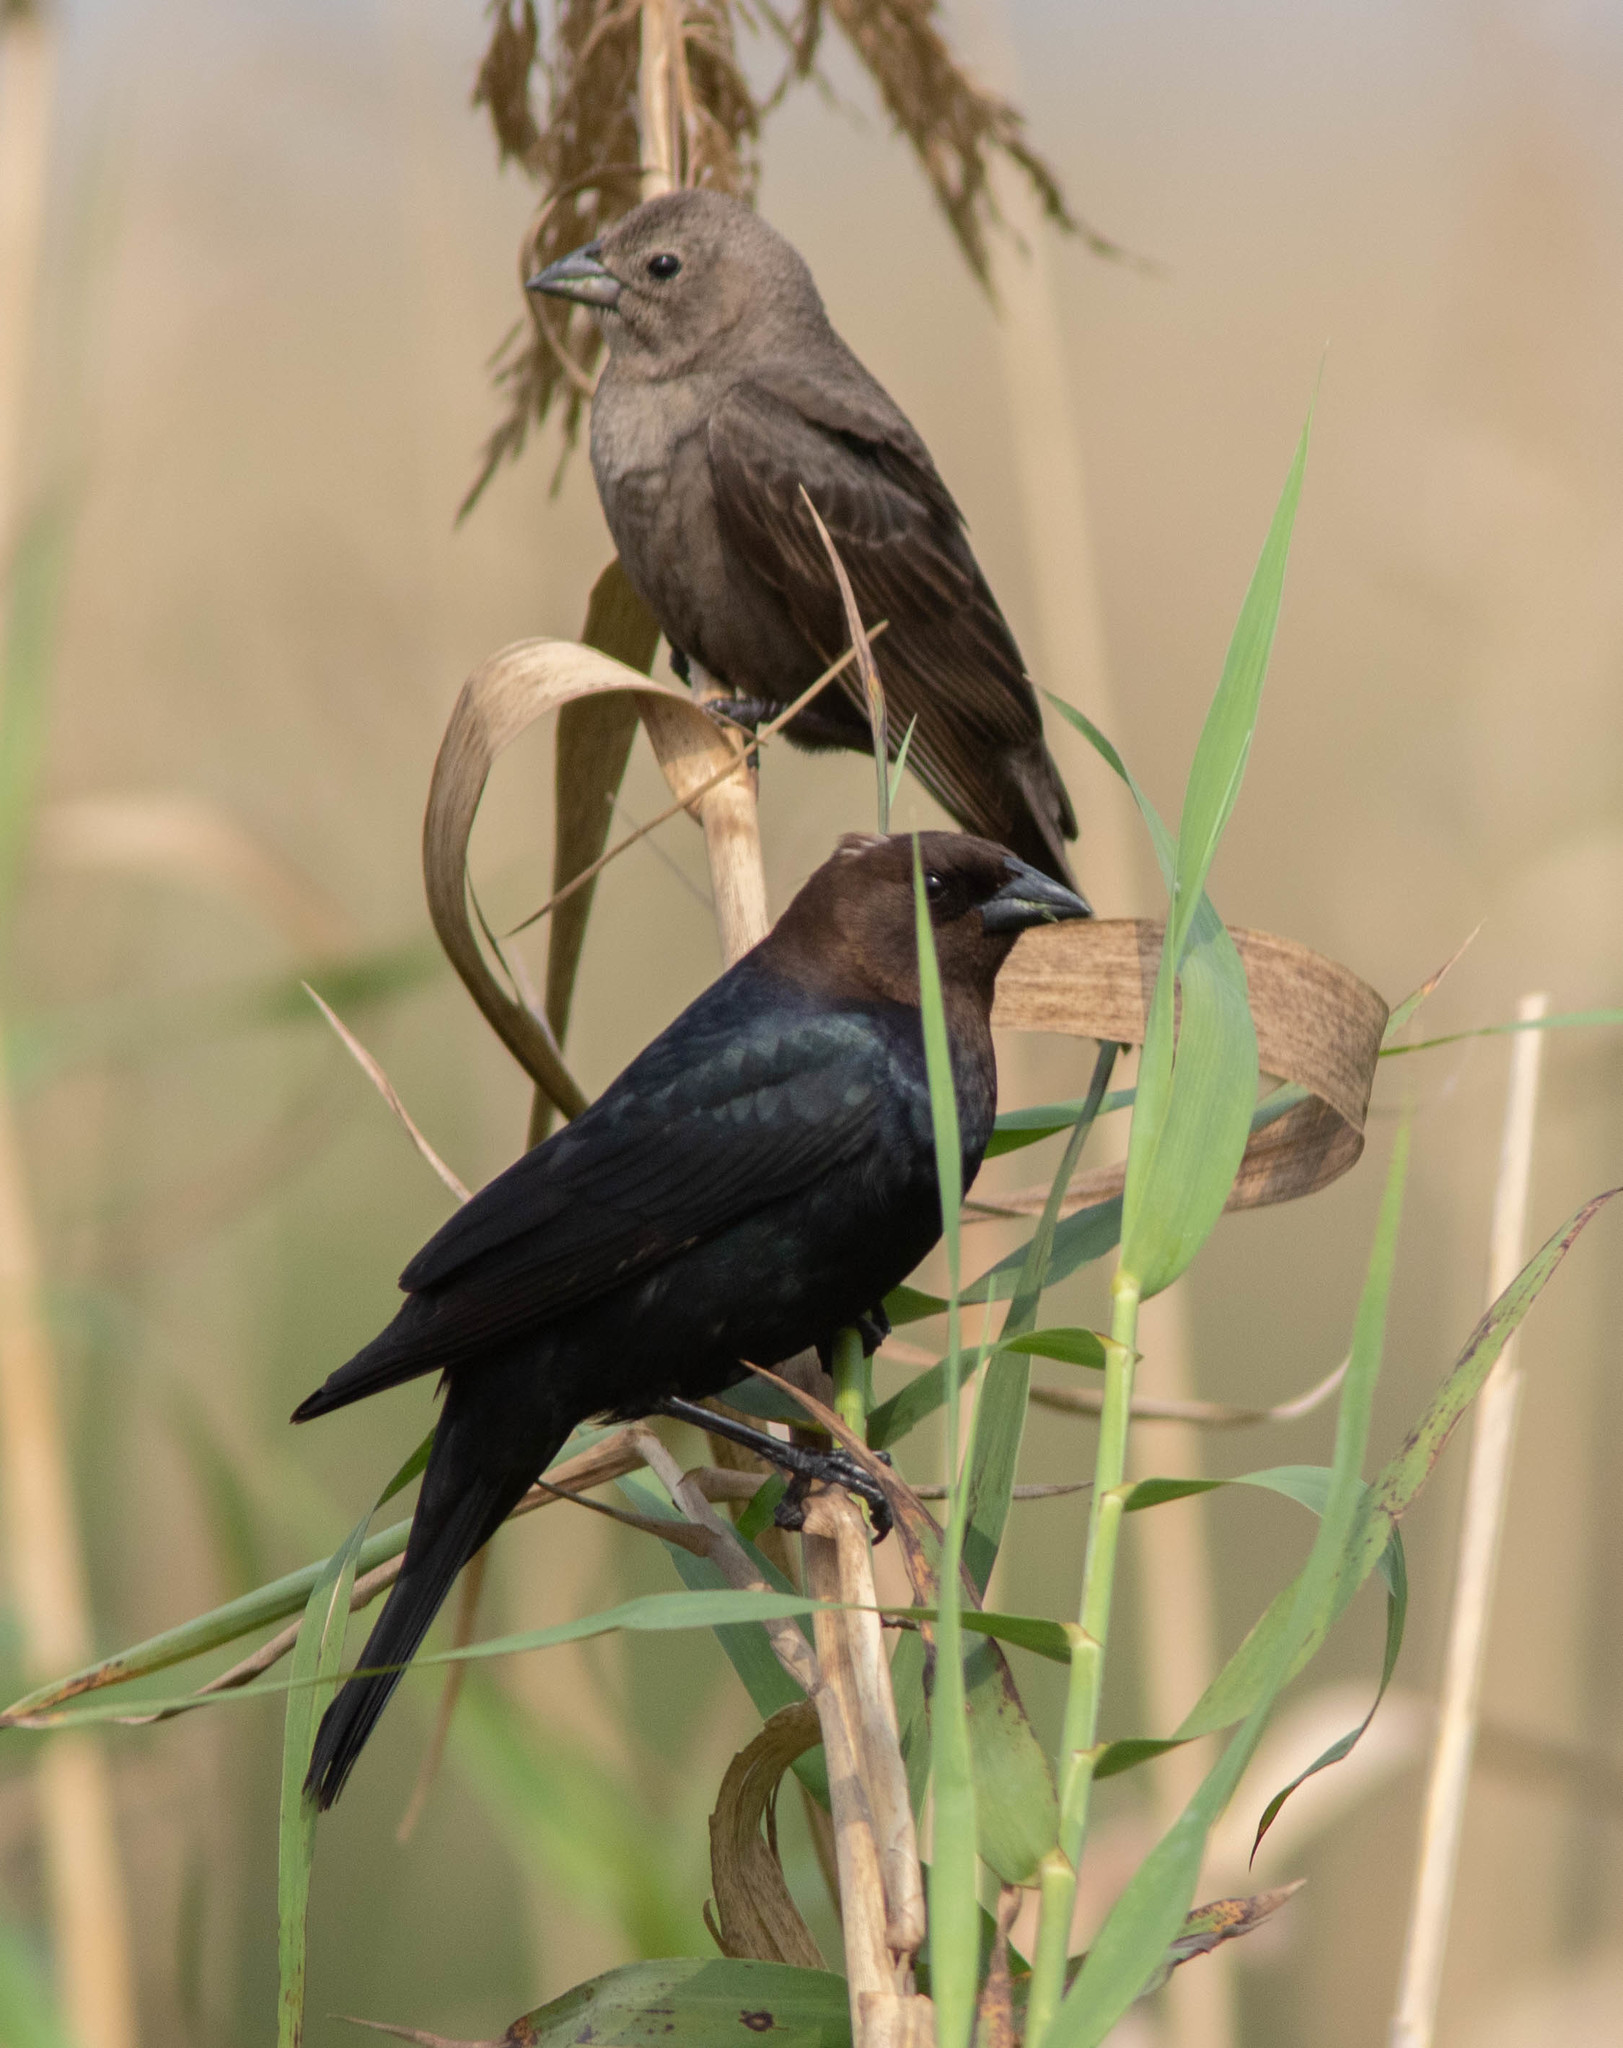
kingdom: Animalia
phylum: Chordata
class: Aves
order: Passeriformes
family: Icteridae
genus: Molothrus
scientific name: Molothrus ater
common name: Brown-headed cowbird
